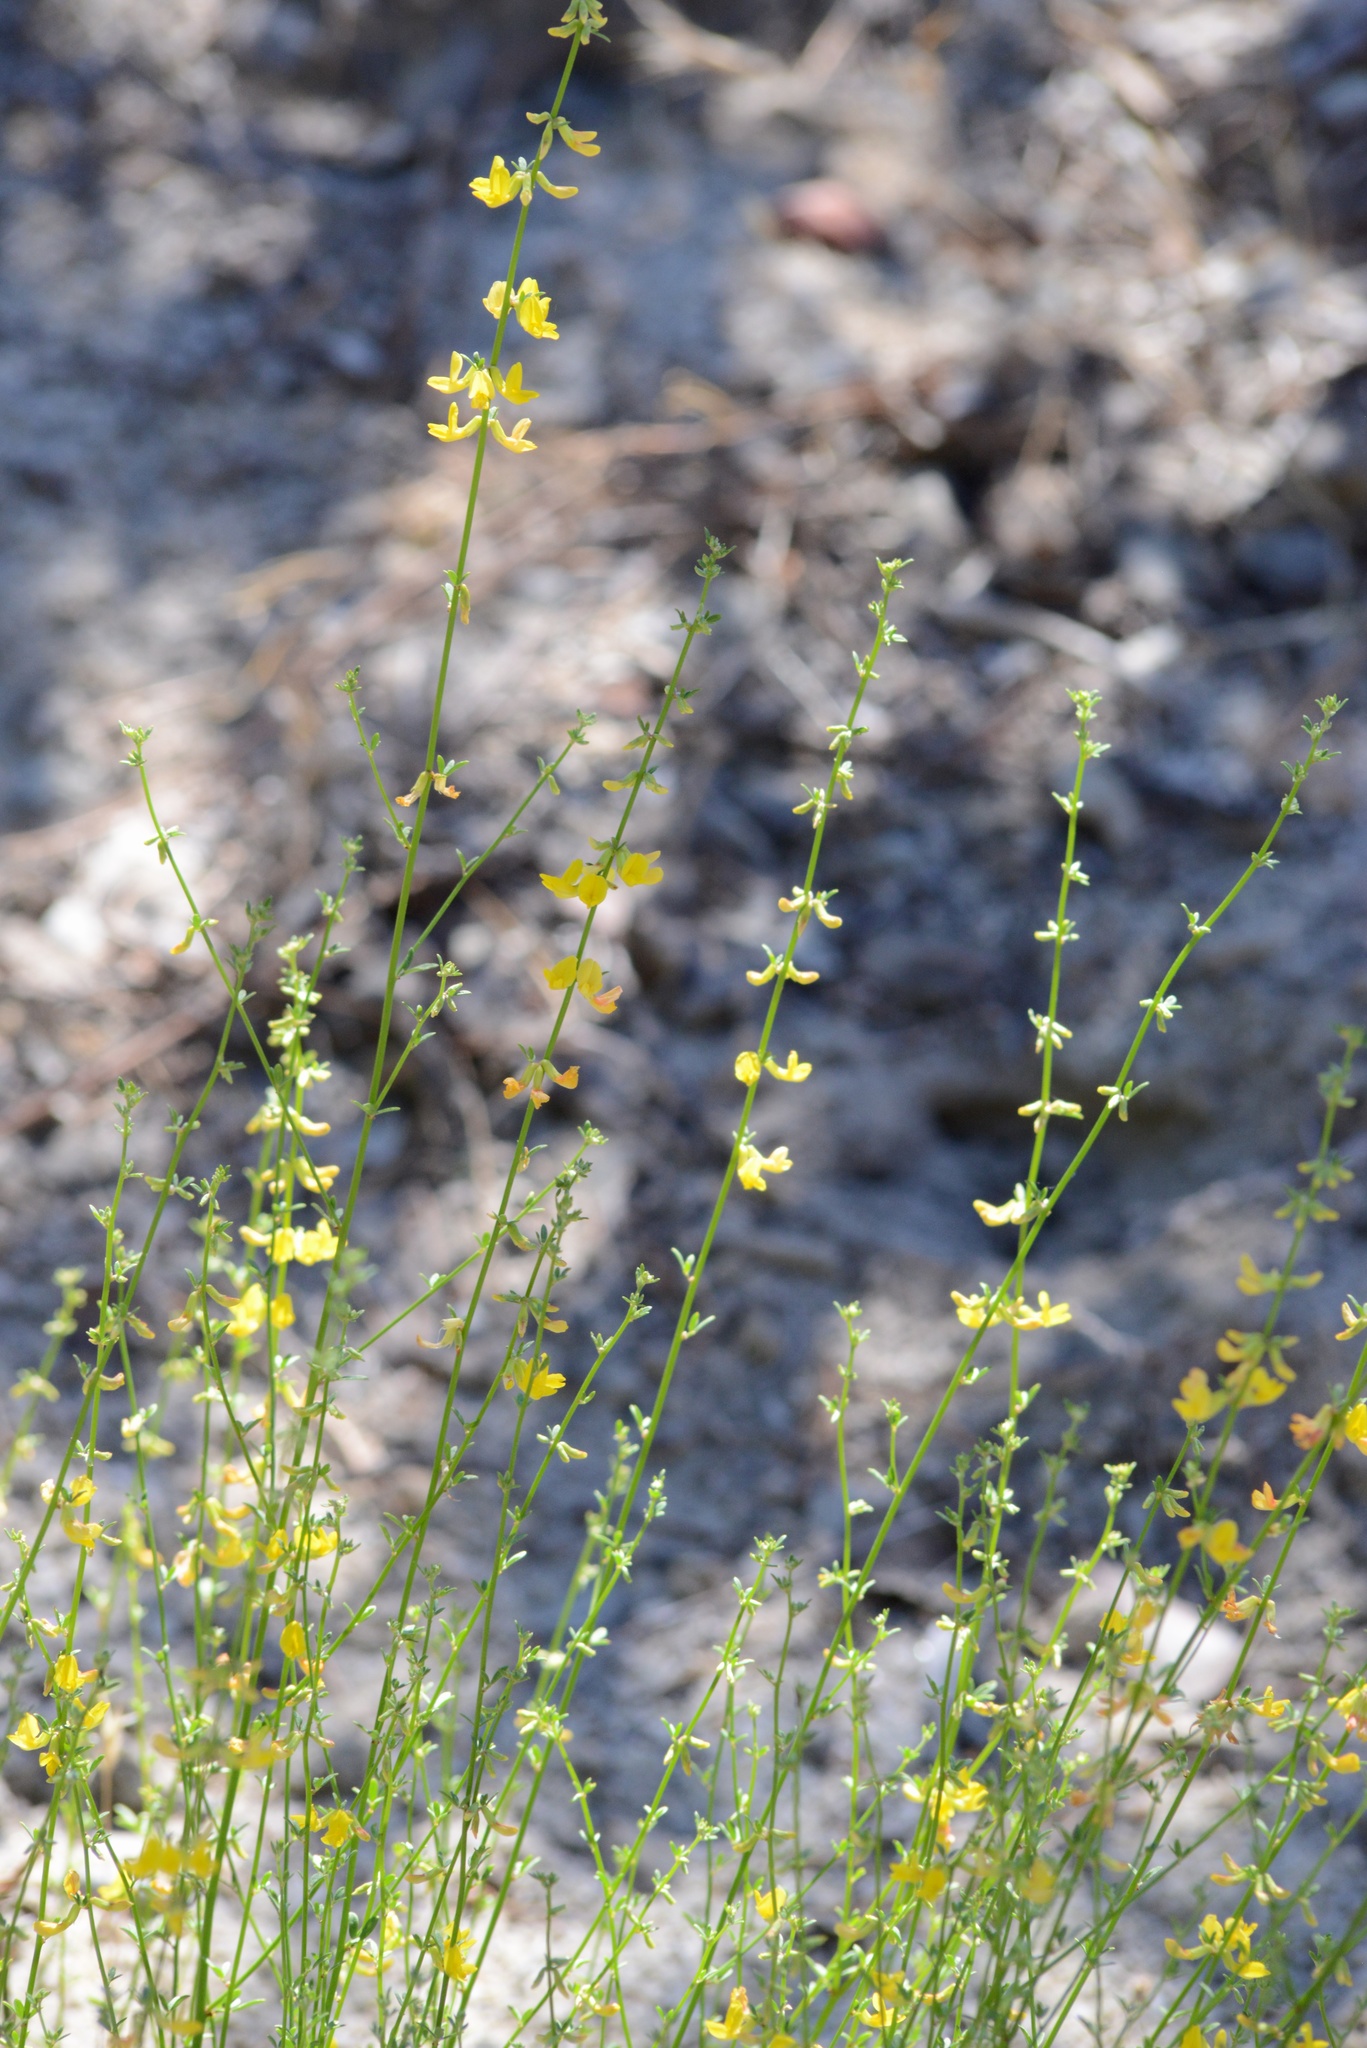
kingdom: Plantae
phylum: Tracheophyta
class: Magnoliopsida
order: Fabales
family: Fabaceae
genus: Acmispon
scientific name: Acmispon glaber
